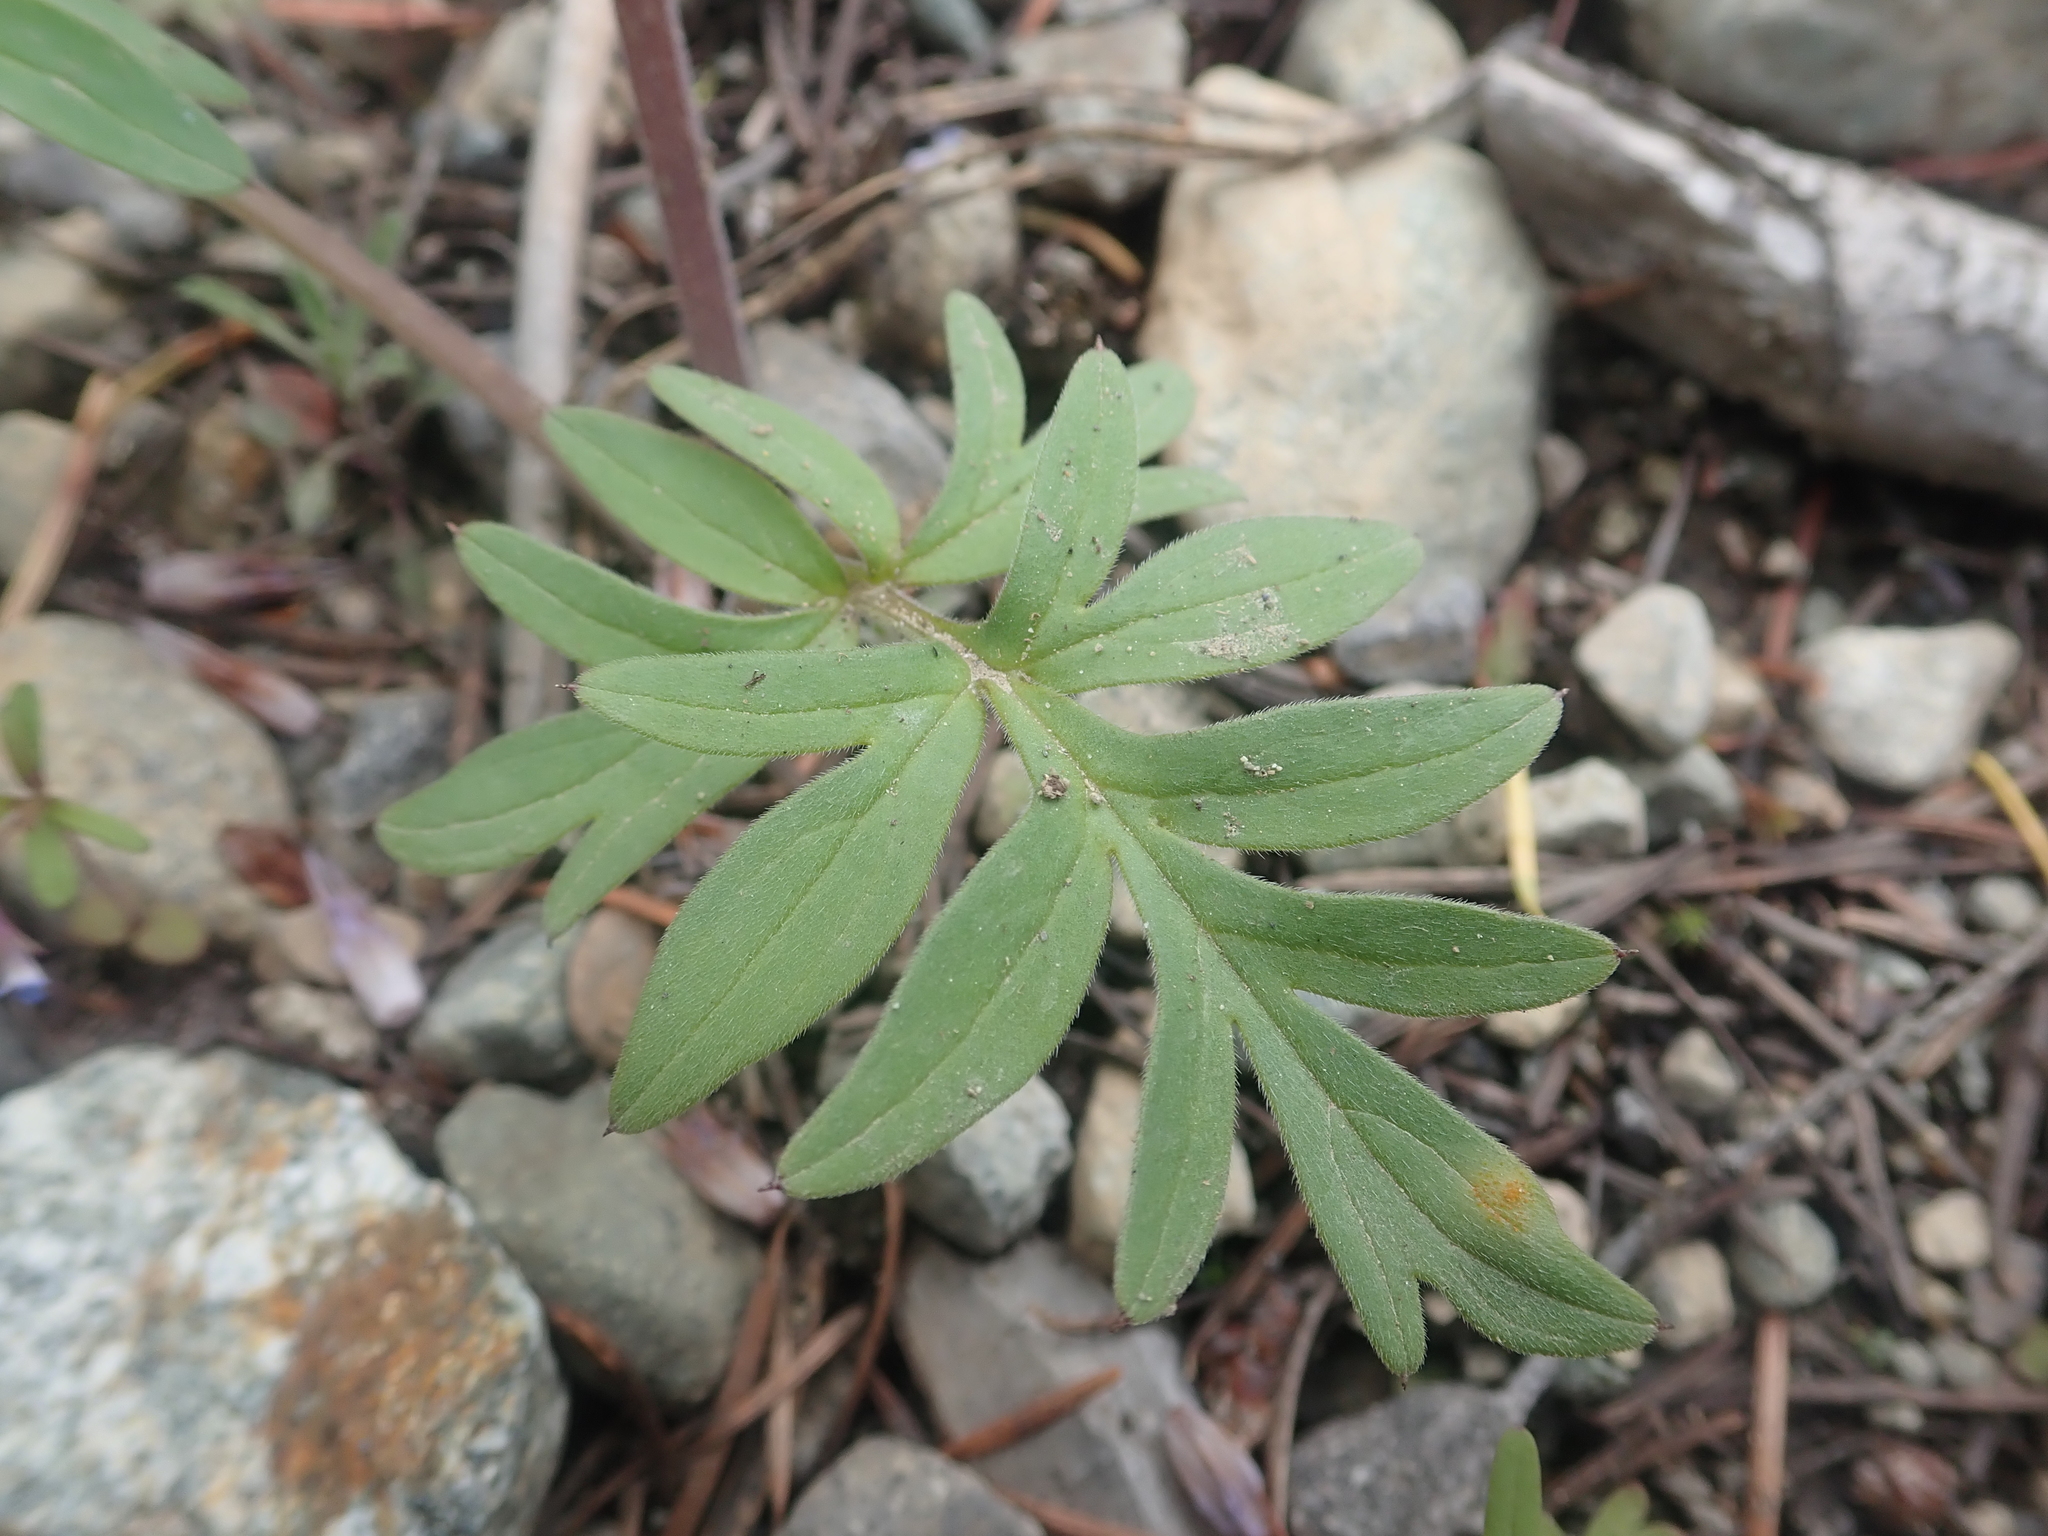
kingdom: Plantae
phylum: Tracheophyta
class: Magnoliopsida
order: Boraginales
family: Hydrophyllaceae
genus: Hydrophyllum
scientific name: Hydrophyllum capitatum
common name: Woollen-breeches
